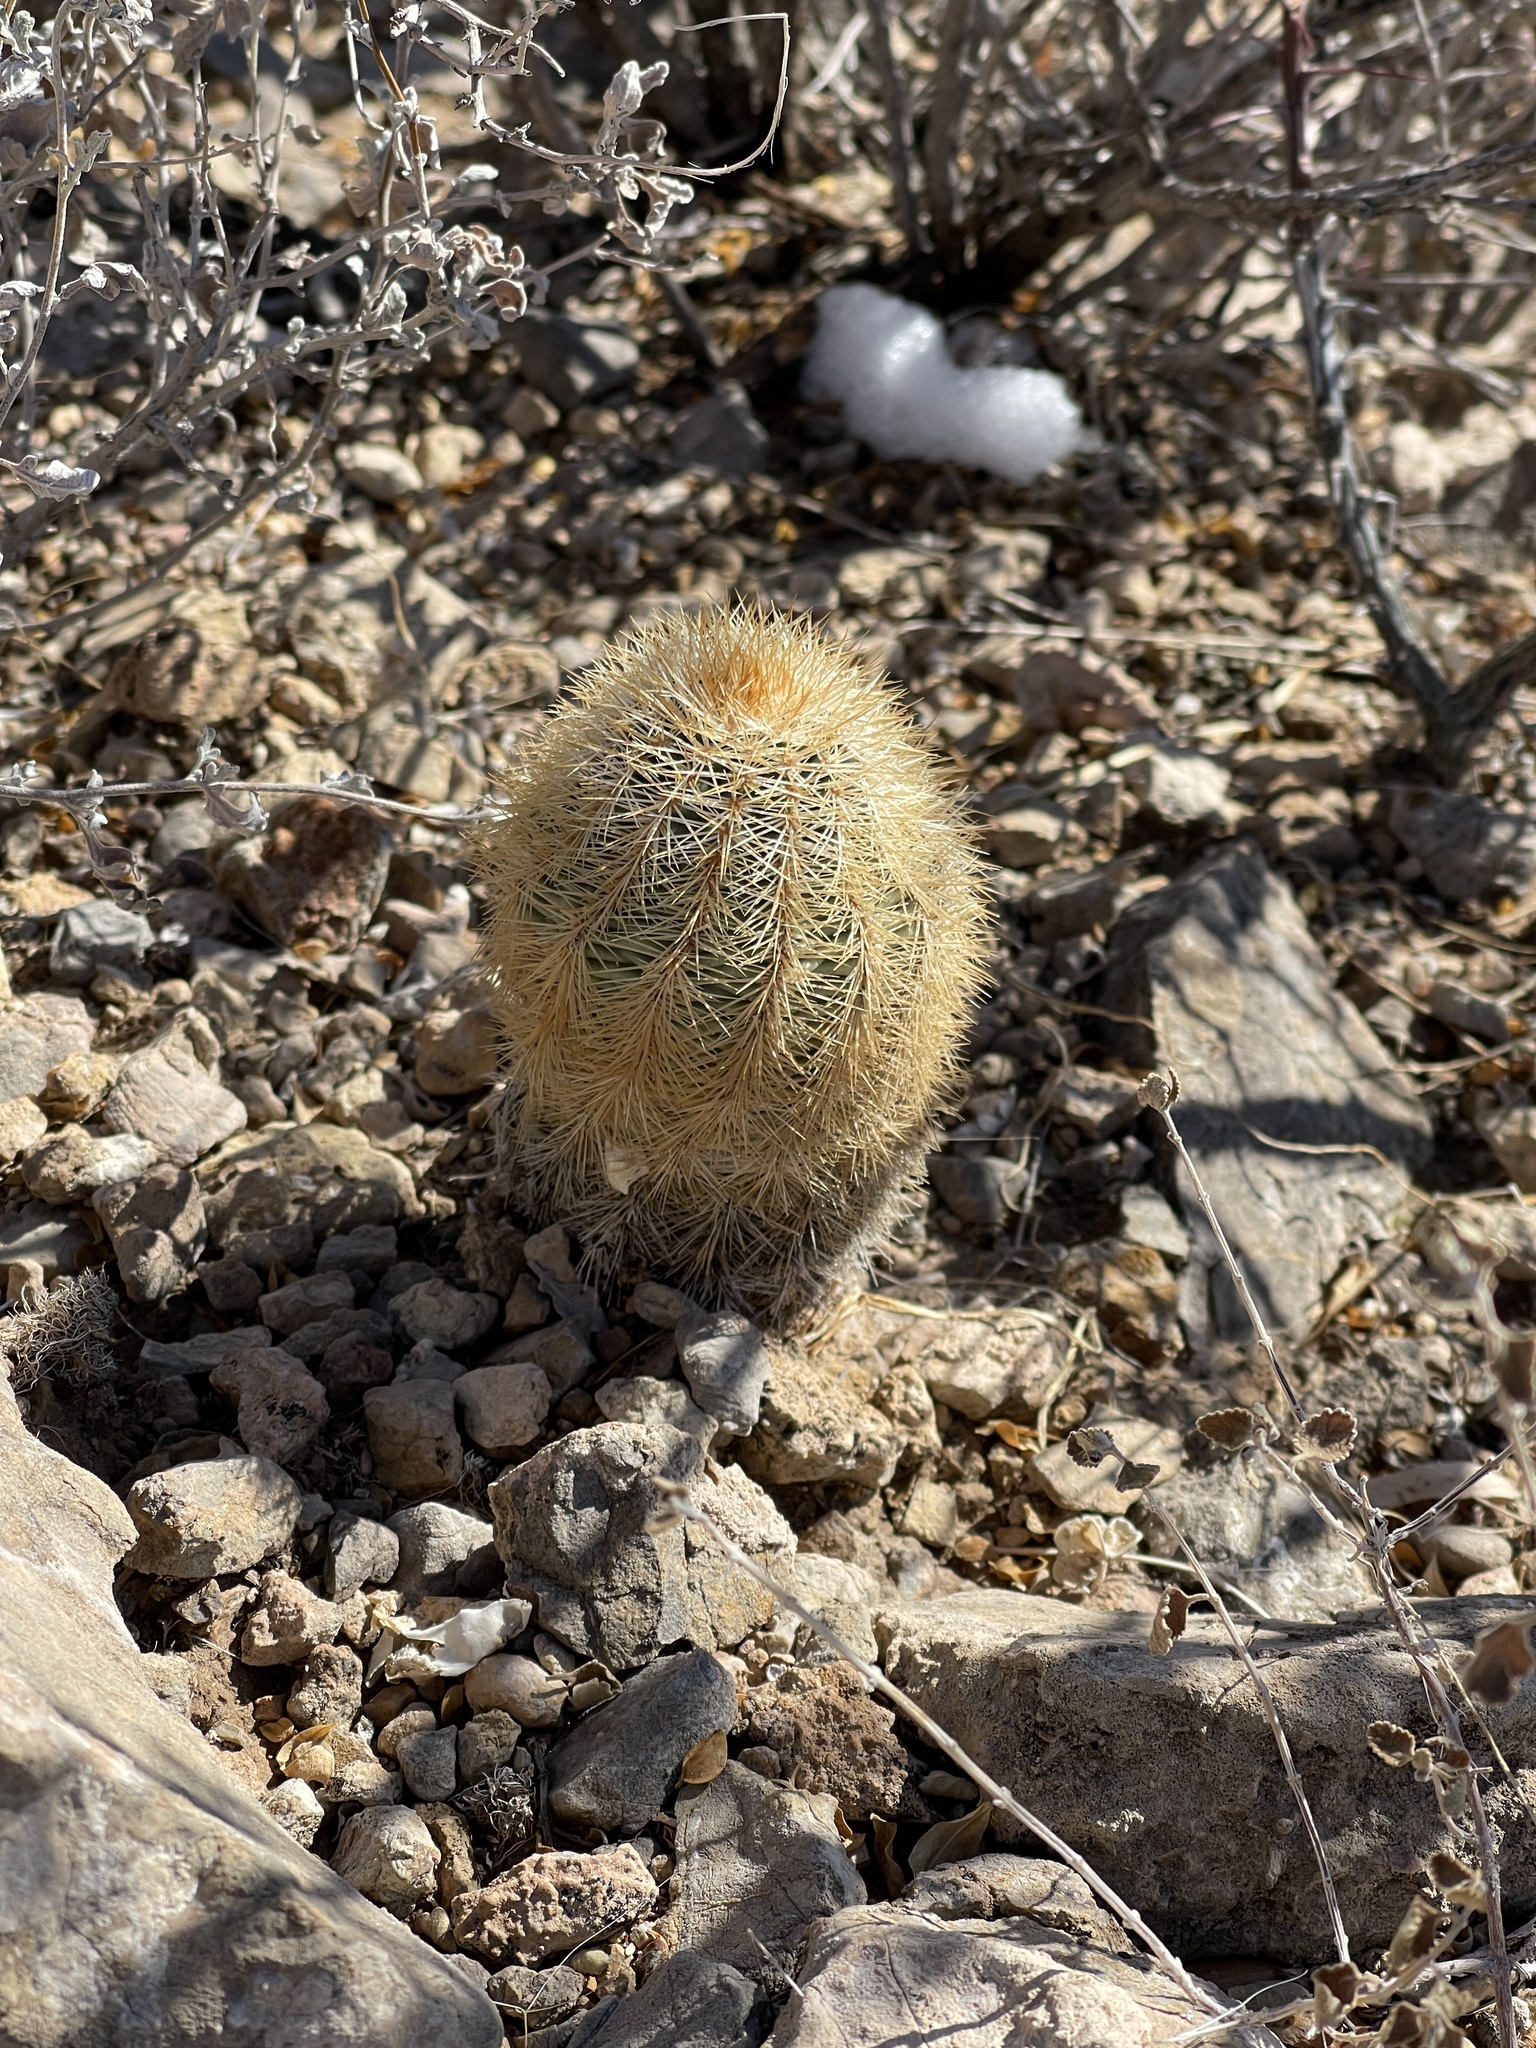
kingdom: Plantae
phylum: Tracheophyta
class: Magnoliopsida
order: Caryophyllales
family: Cactaceae
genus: Echinocereus
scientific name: Echinocereus dasyacanthus
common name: Spiny hedgehog cactus
